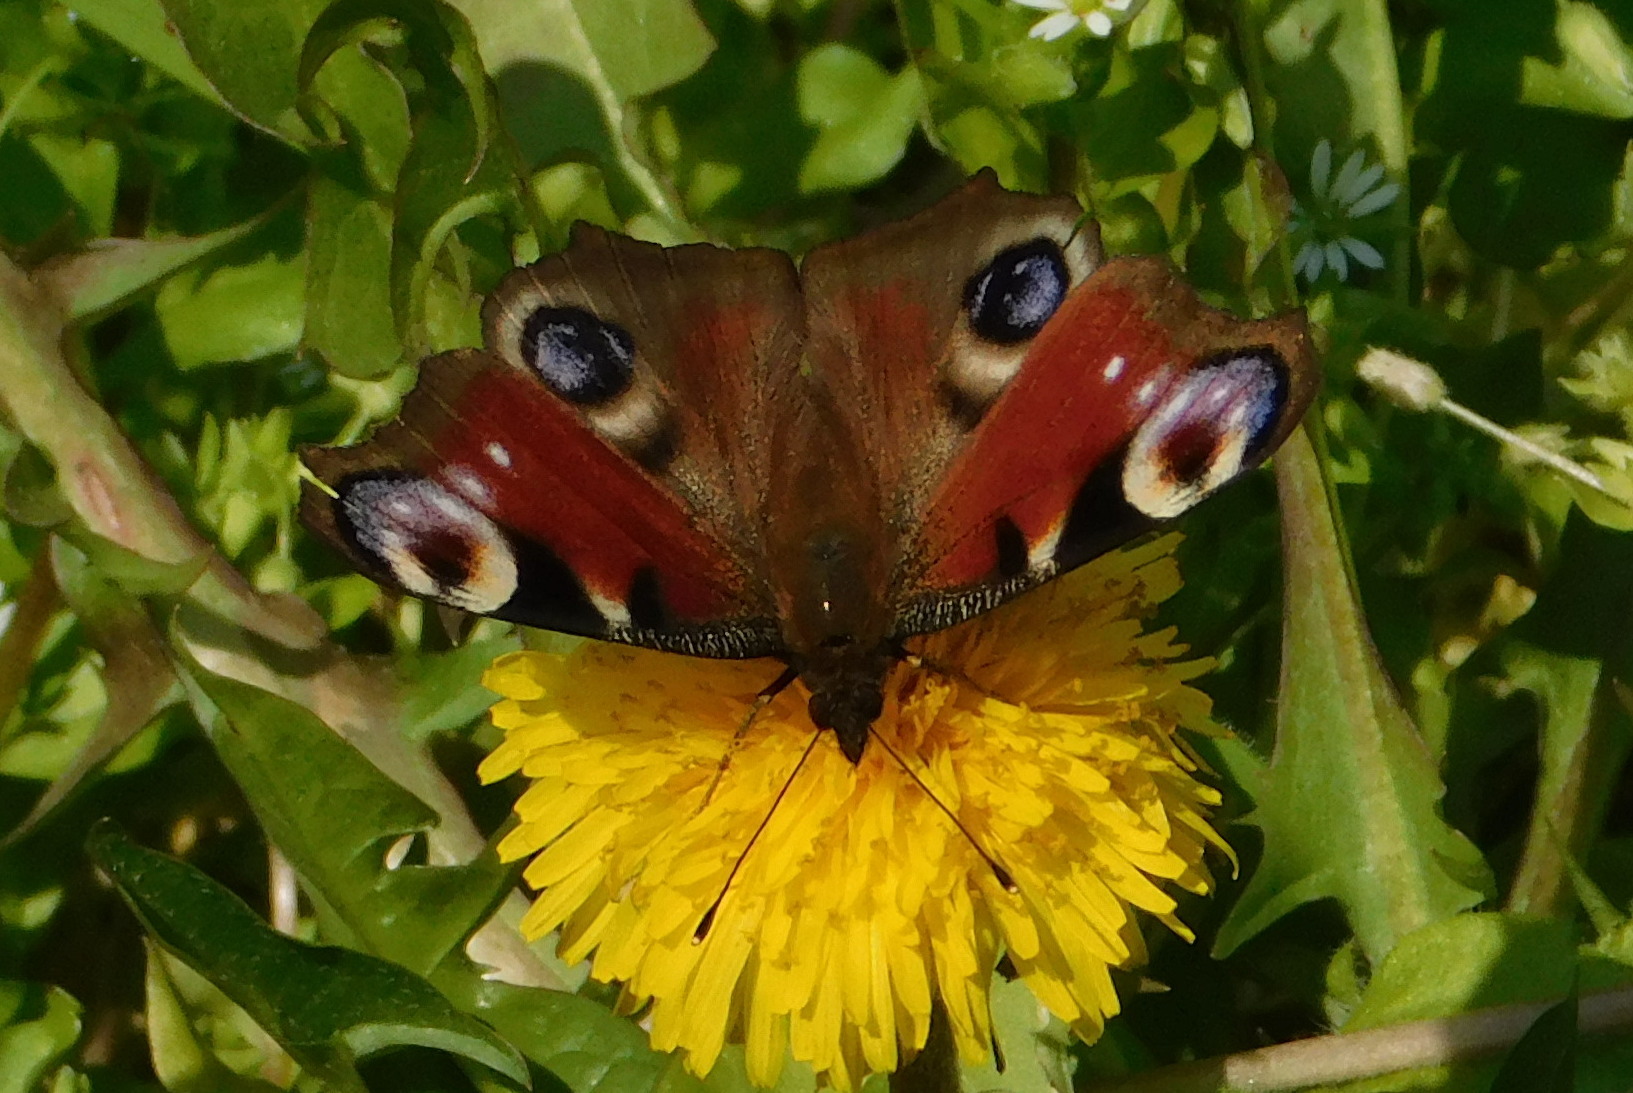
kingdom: Animalia
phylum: Arthropoda
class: Insecta
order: Lepidoptera
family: Nymphalidae
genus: Aglais
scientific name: Aglais io
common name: Peacock
